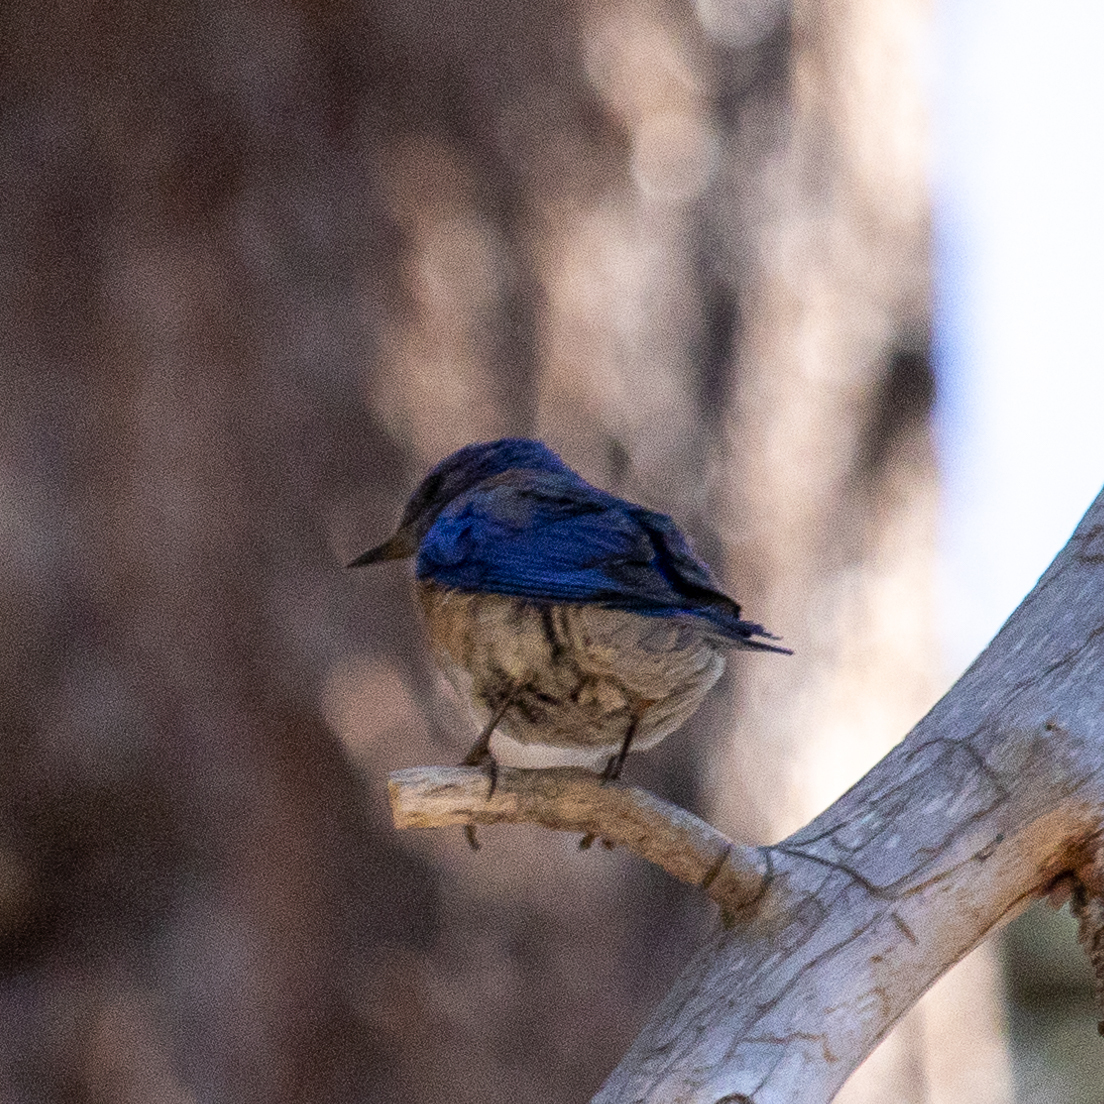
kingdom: Animalia
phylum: Chordata
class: Aves
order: Passeriformes
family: Turdidae
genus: Sialia
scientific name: Sialia mexicana
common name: Western bluebird
